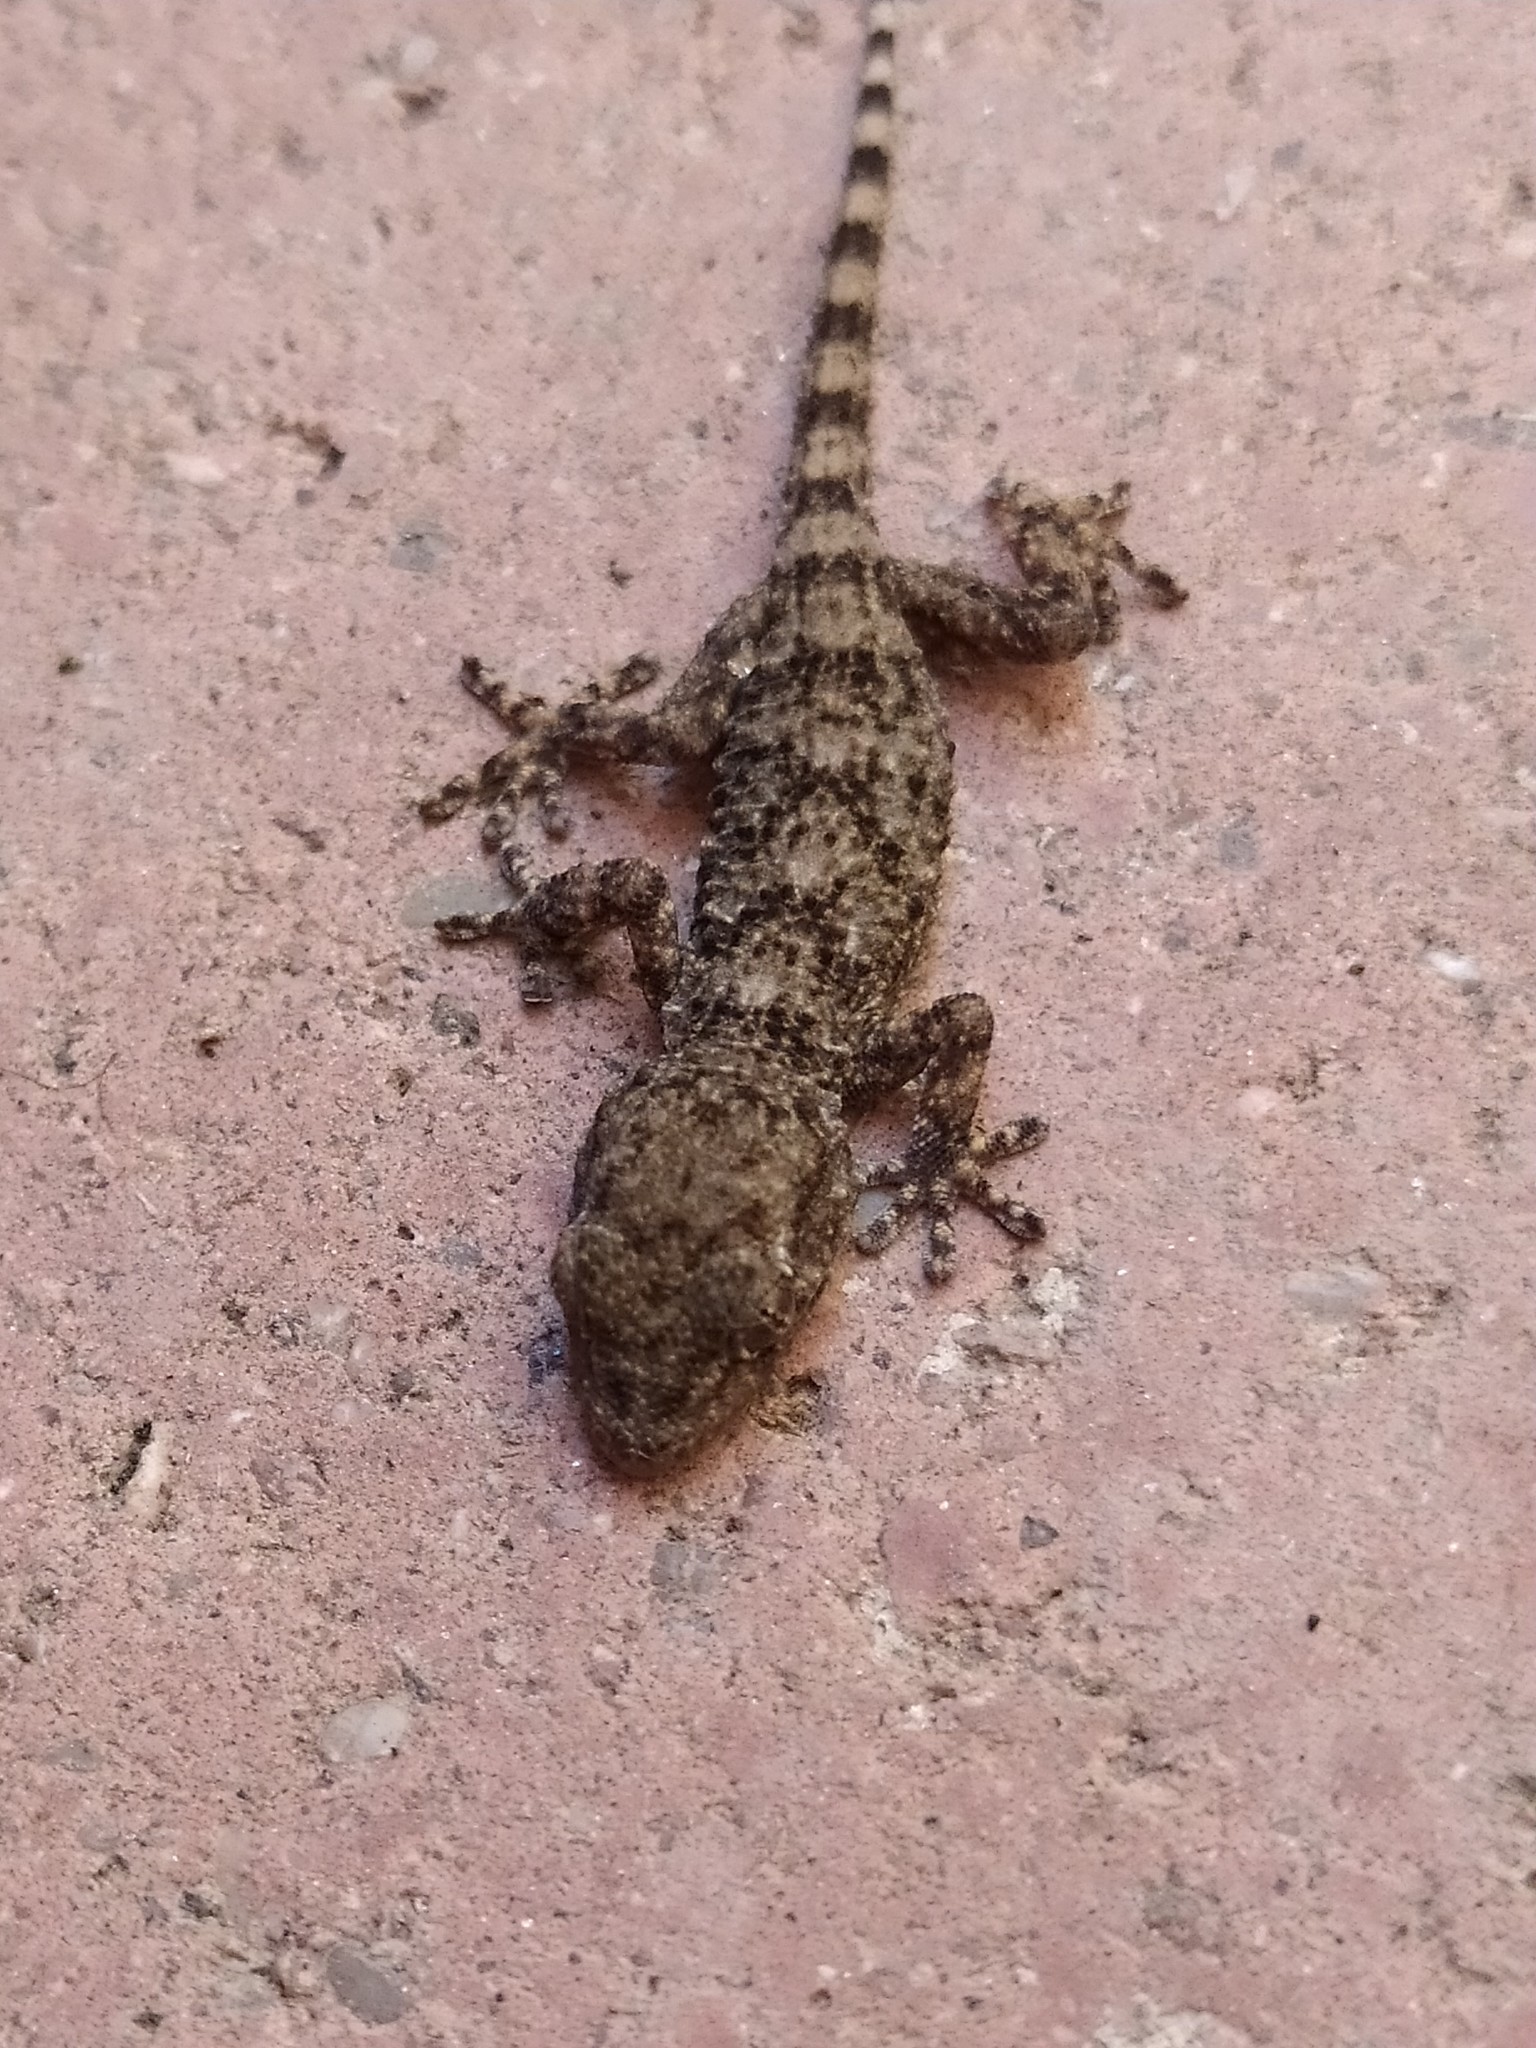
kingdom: Animalia
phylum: Chordata
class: Squamata
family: Phyllodactylidae
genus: Tarentola
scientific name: Tarentola mauritanica
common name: Moorish gecko
